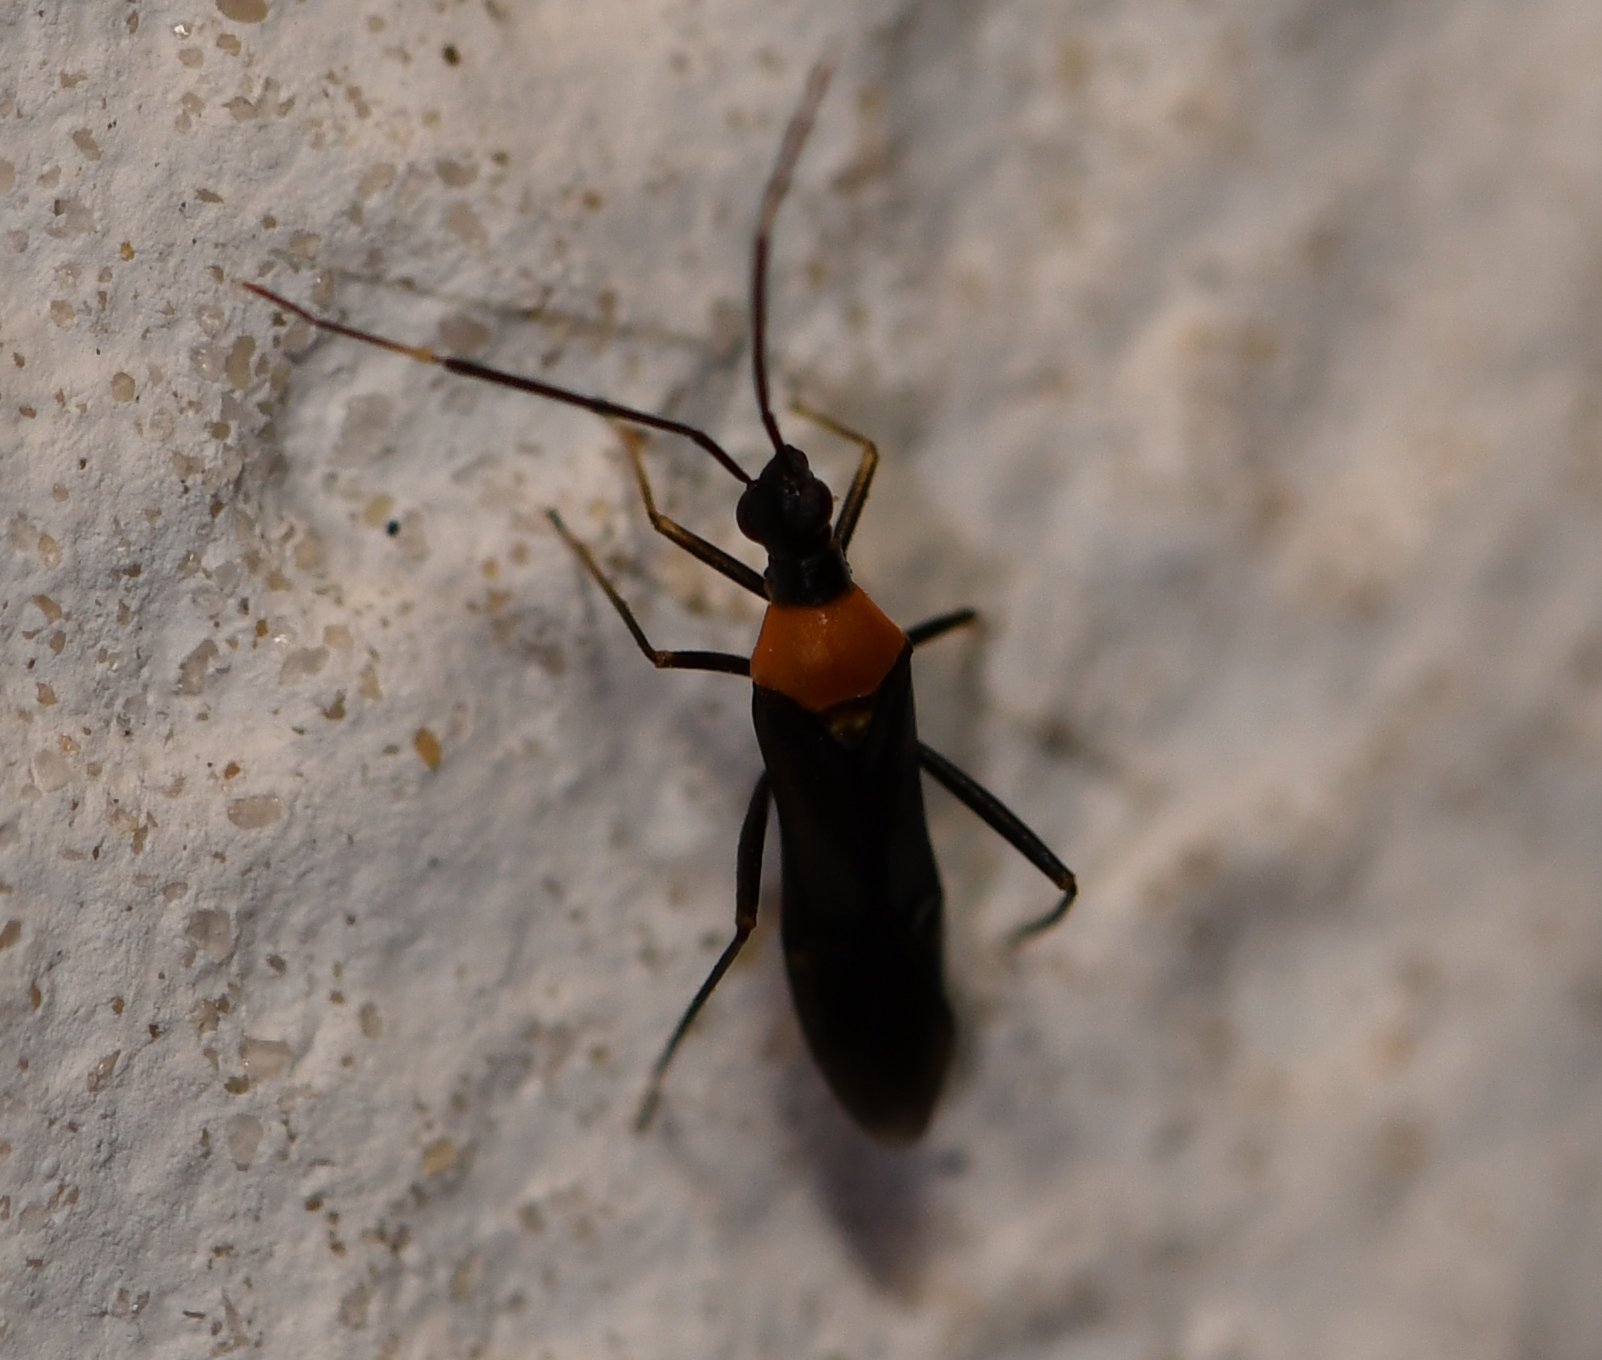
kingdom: Animalia
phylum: Arthropoda
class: Insecta
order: Hemiptera
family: Miridae
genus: Pseudoxenetus
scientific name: Pseudoxenetus regalis
